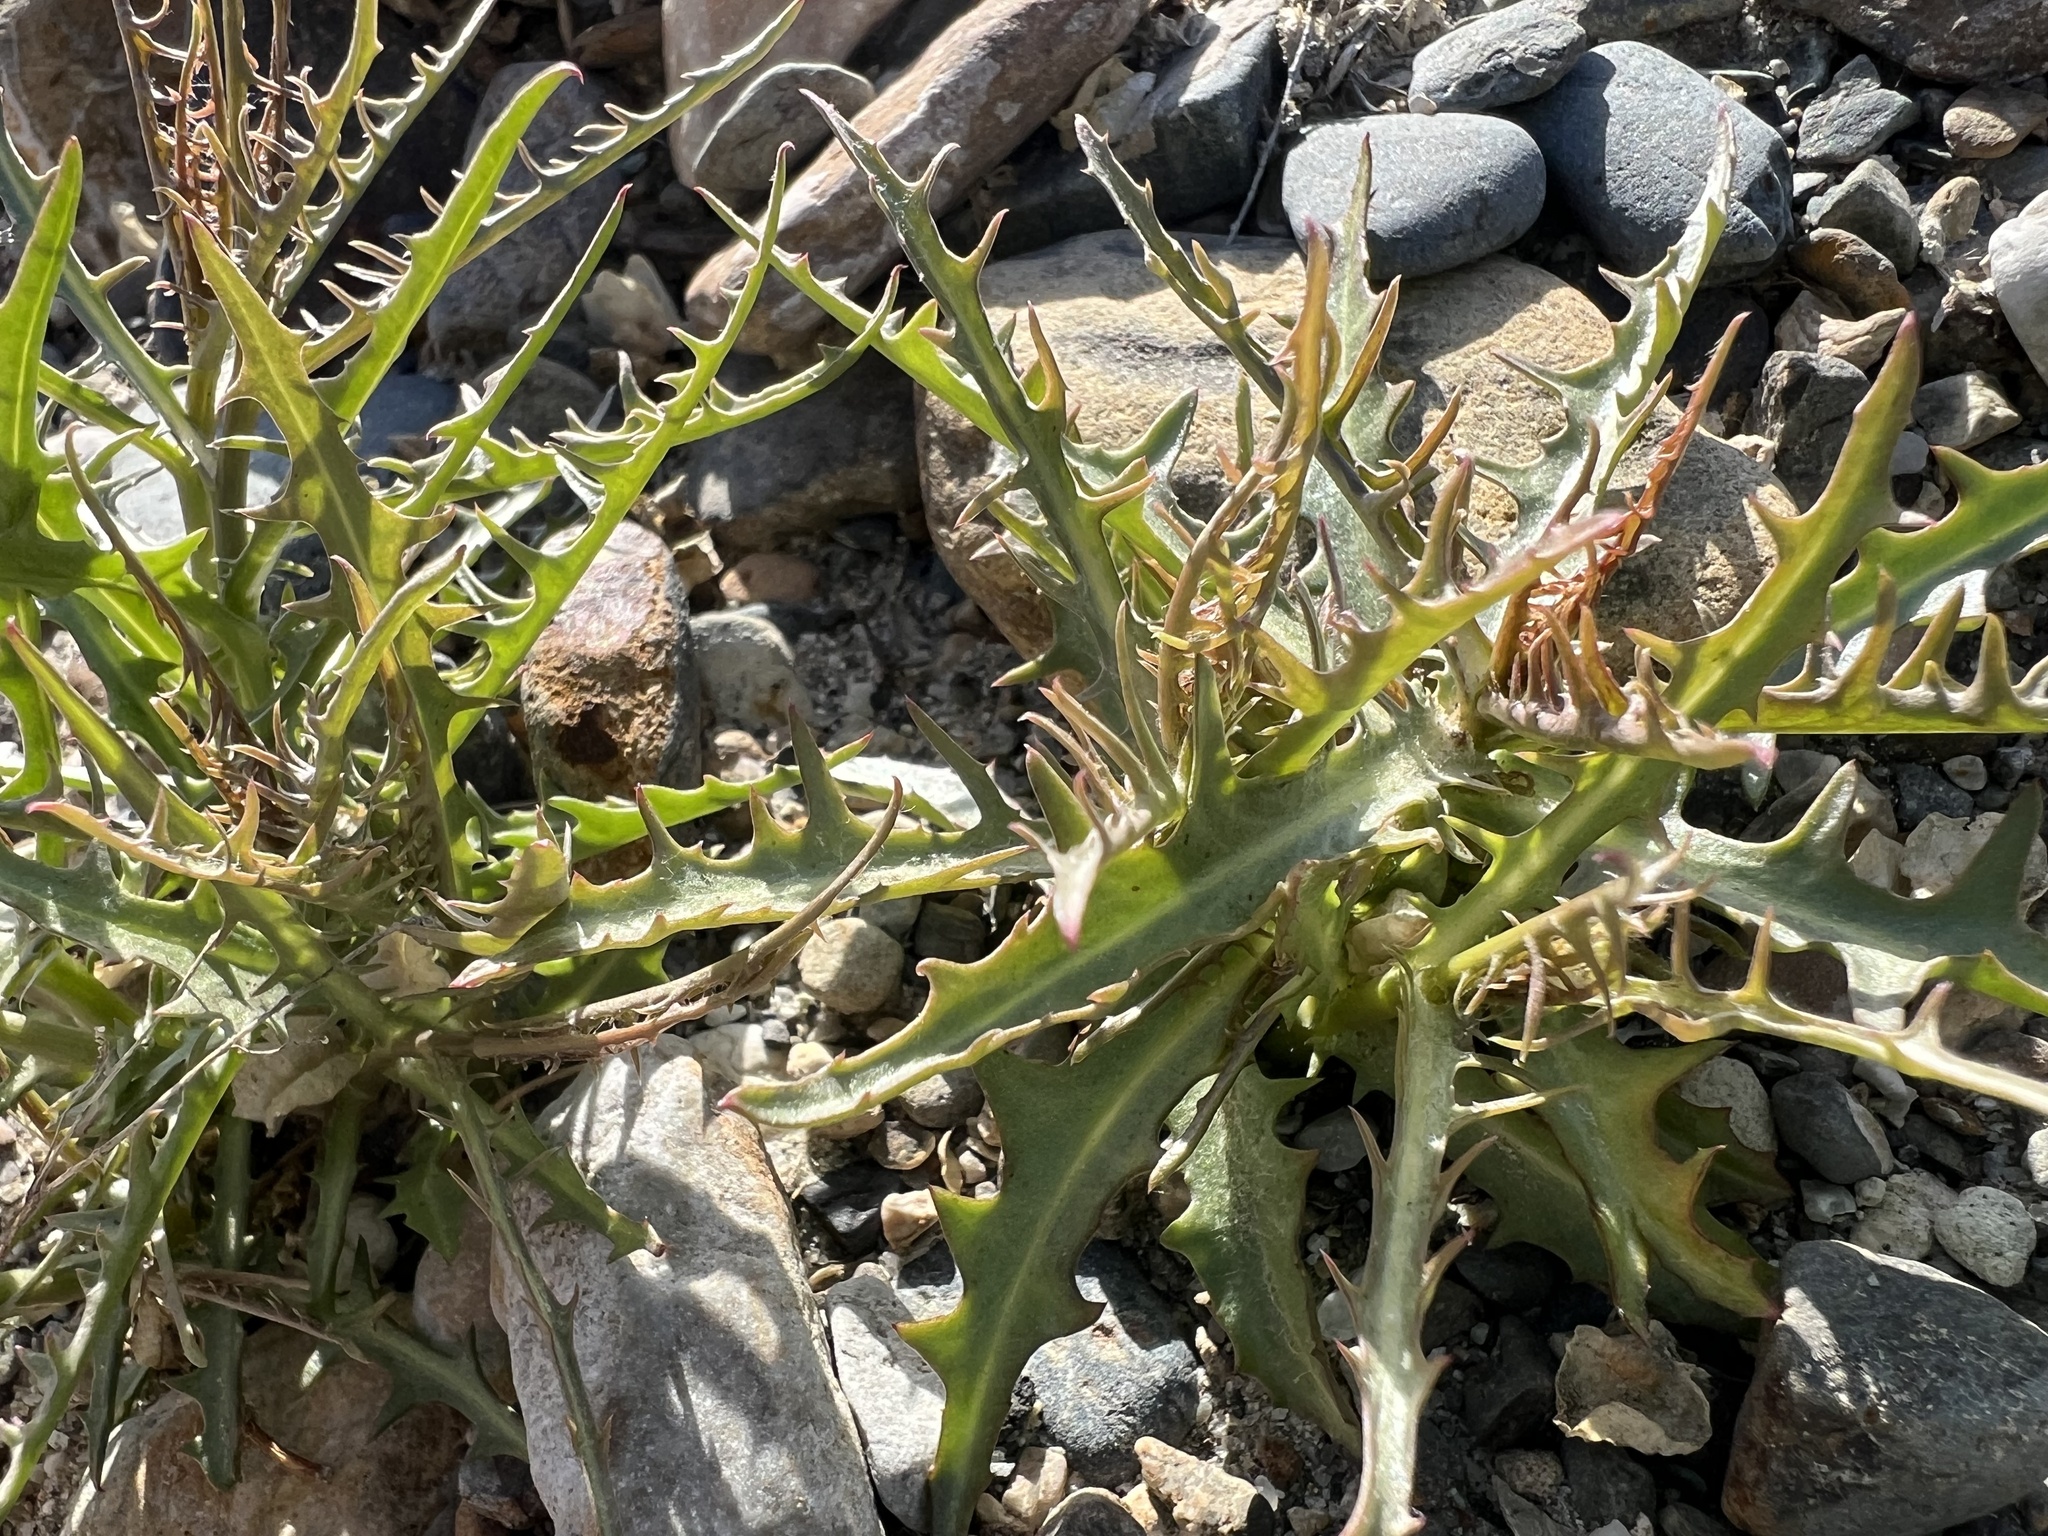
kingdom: Plantae
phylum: Tracheophyta
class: Magnoliopsida
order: Asterales
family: Asteraceae
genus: Stephanomeria
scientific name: Stephanomeria pauciflora
